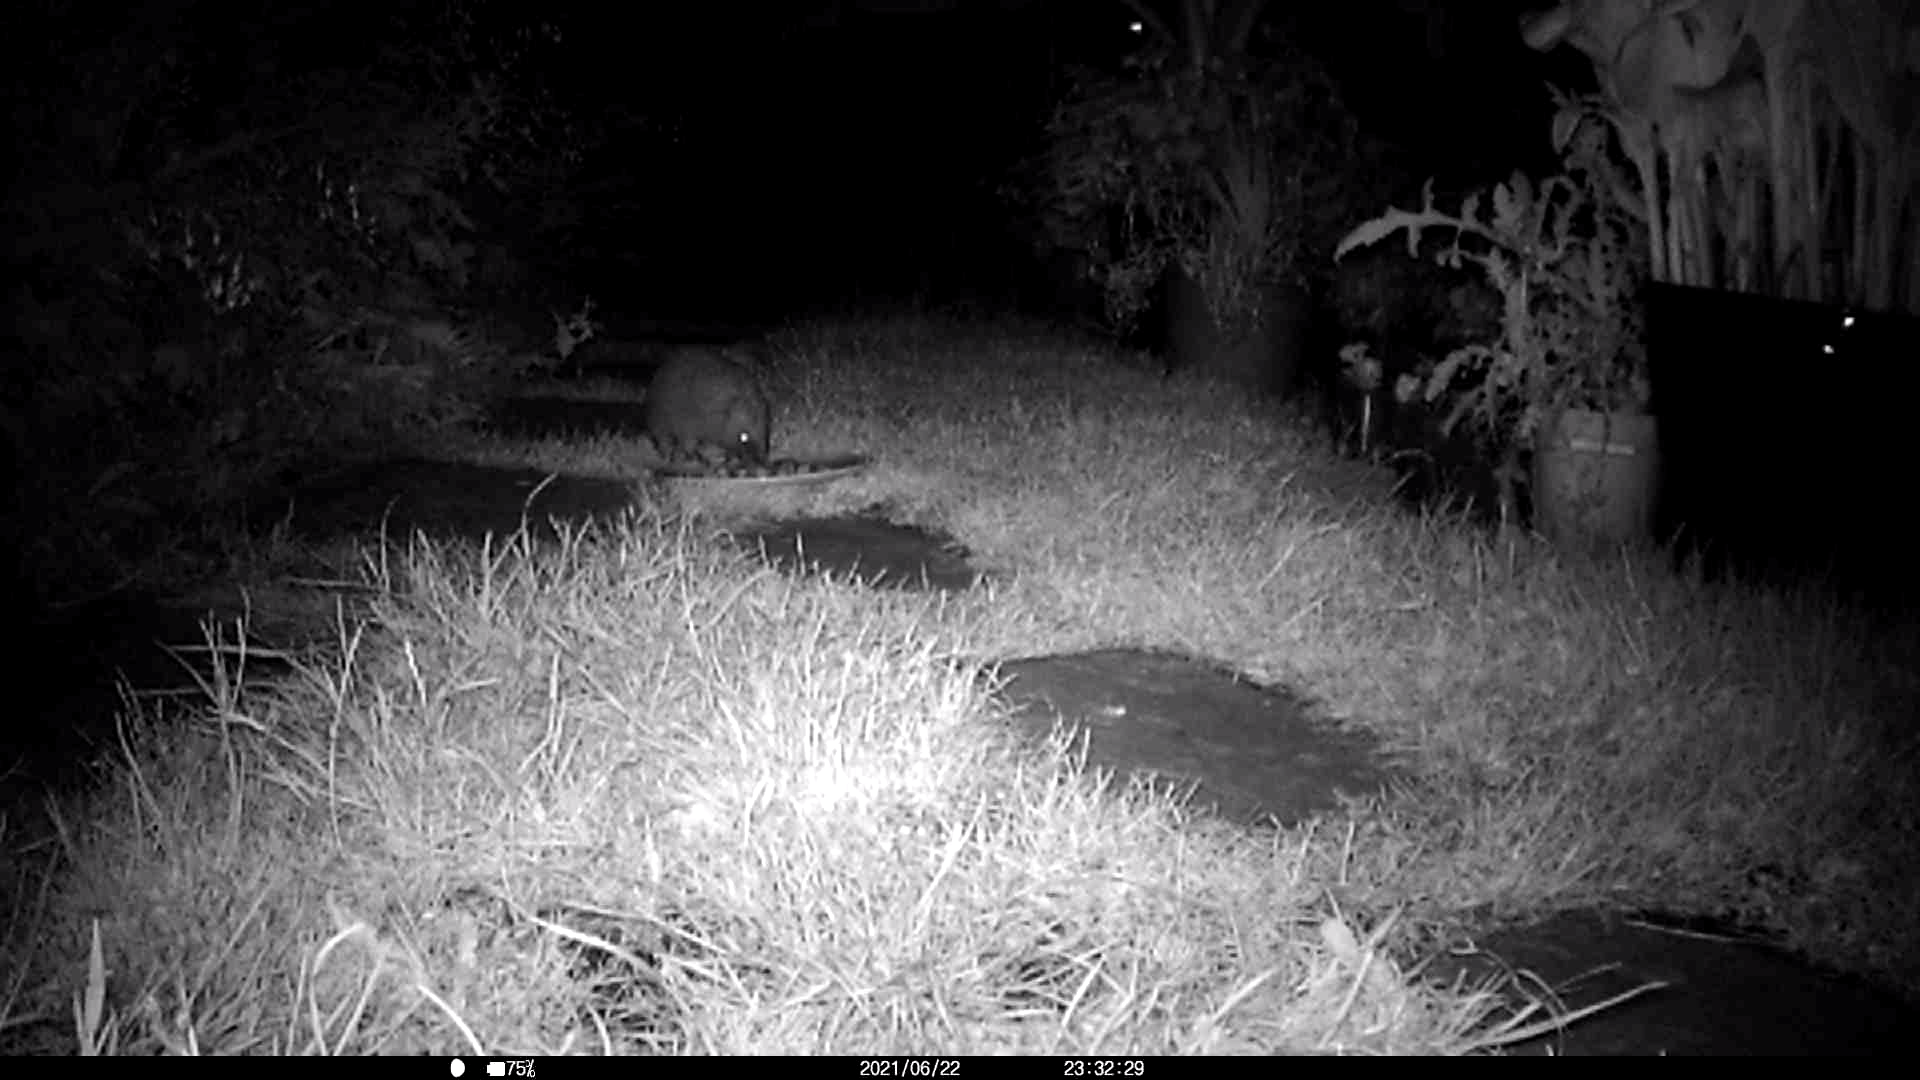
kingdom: Animalia
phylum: Chordata
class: Mammalia
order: Erinaceomorpha
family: Erinaceidae
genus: Erinaceus
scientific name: Erinaceus europaeus
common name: West european hedgehog
